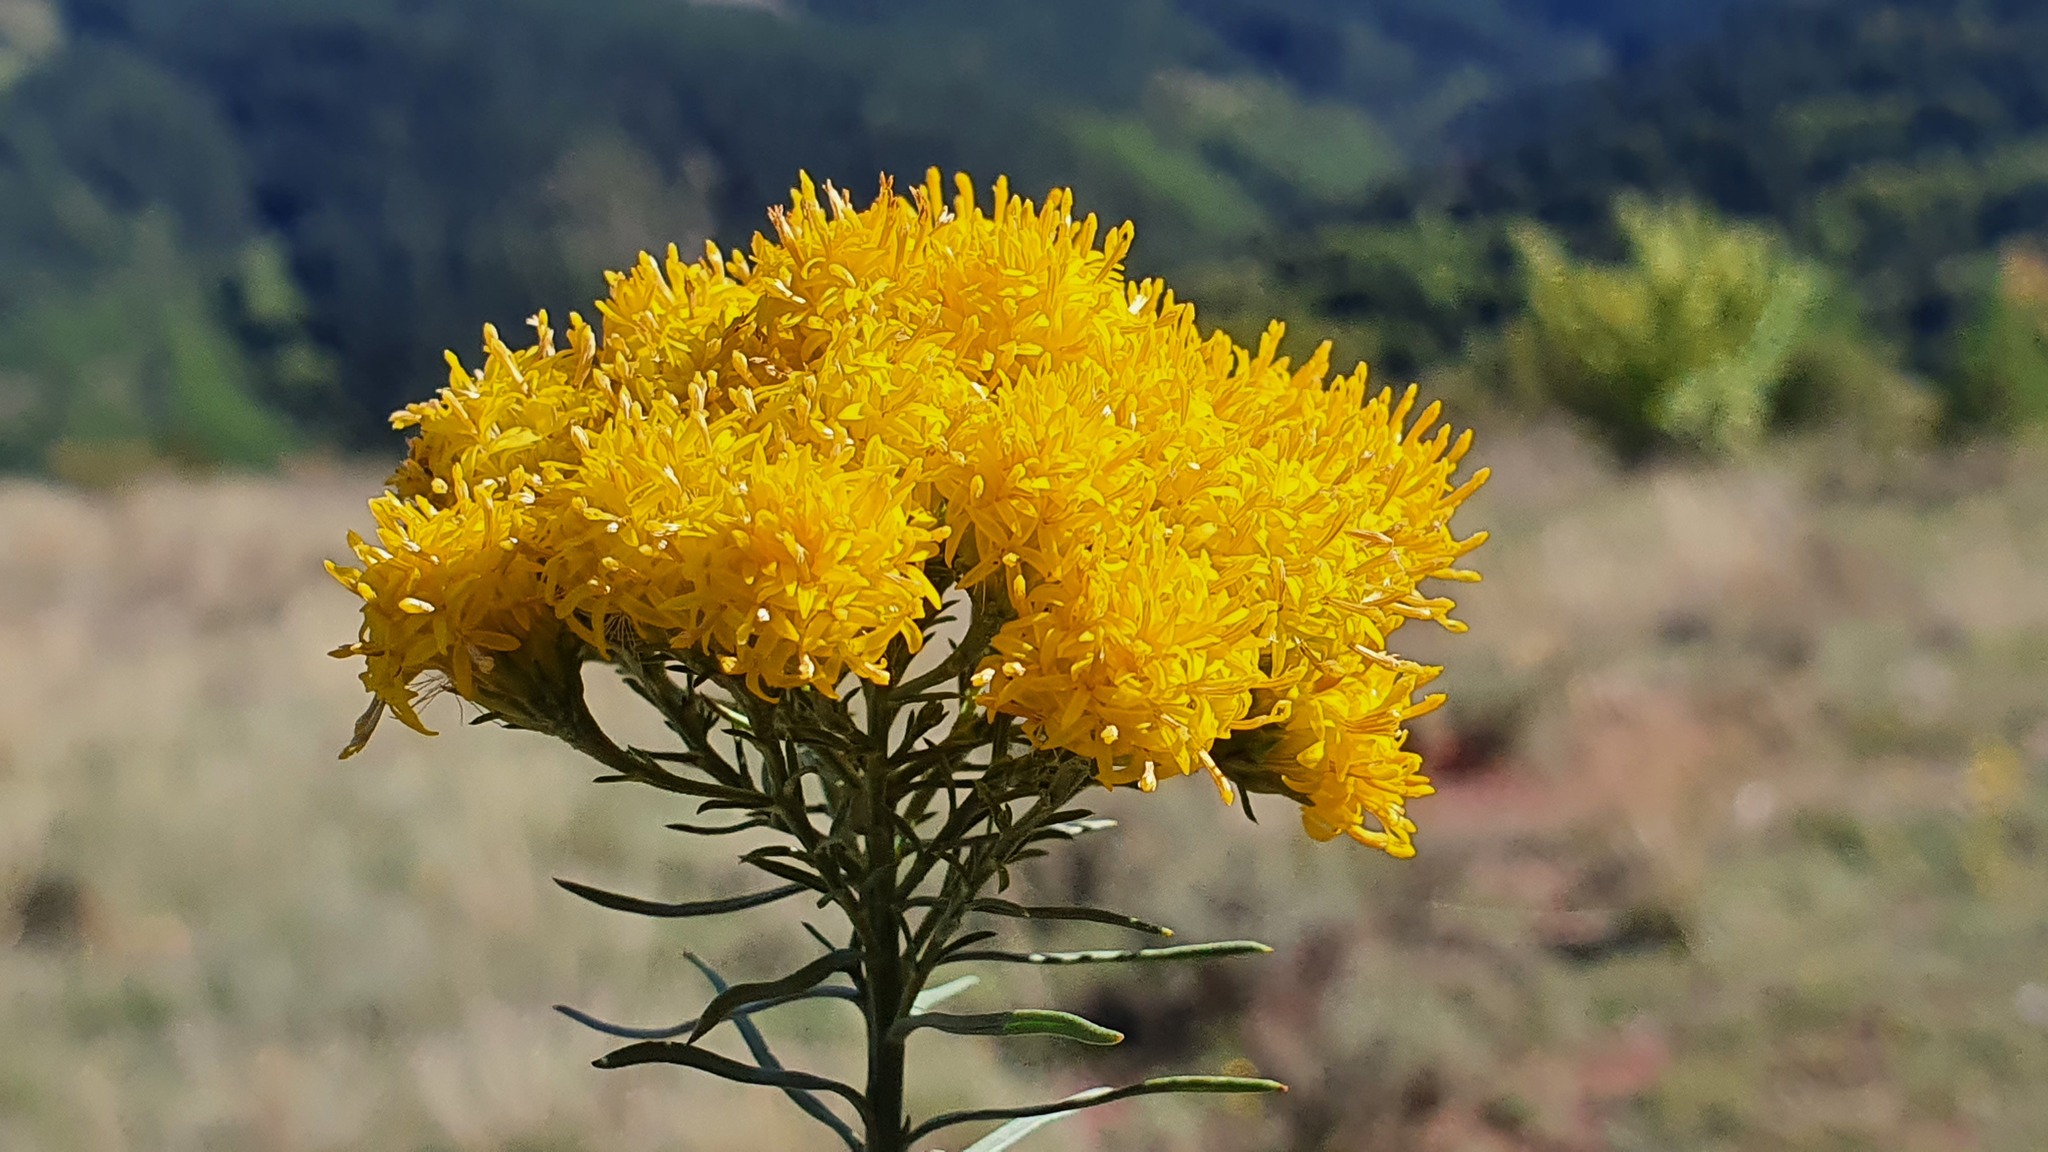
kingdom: Plantae
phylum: Tracheophyta
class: Magnoliopsida
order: Asterales
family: Asteraceae
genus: Galatella
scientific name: Galatella linosyris
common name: Goldilocks aster
